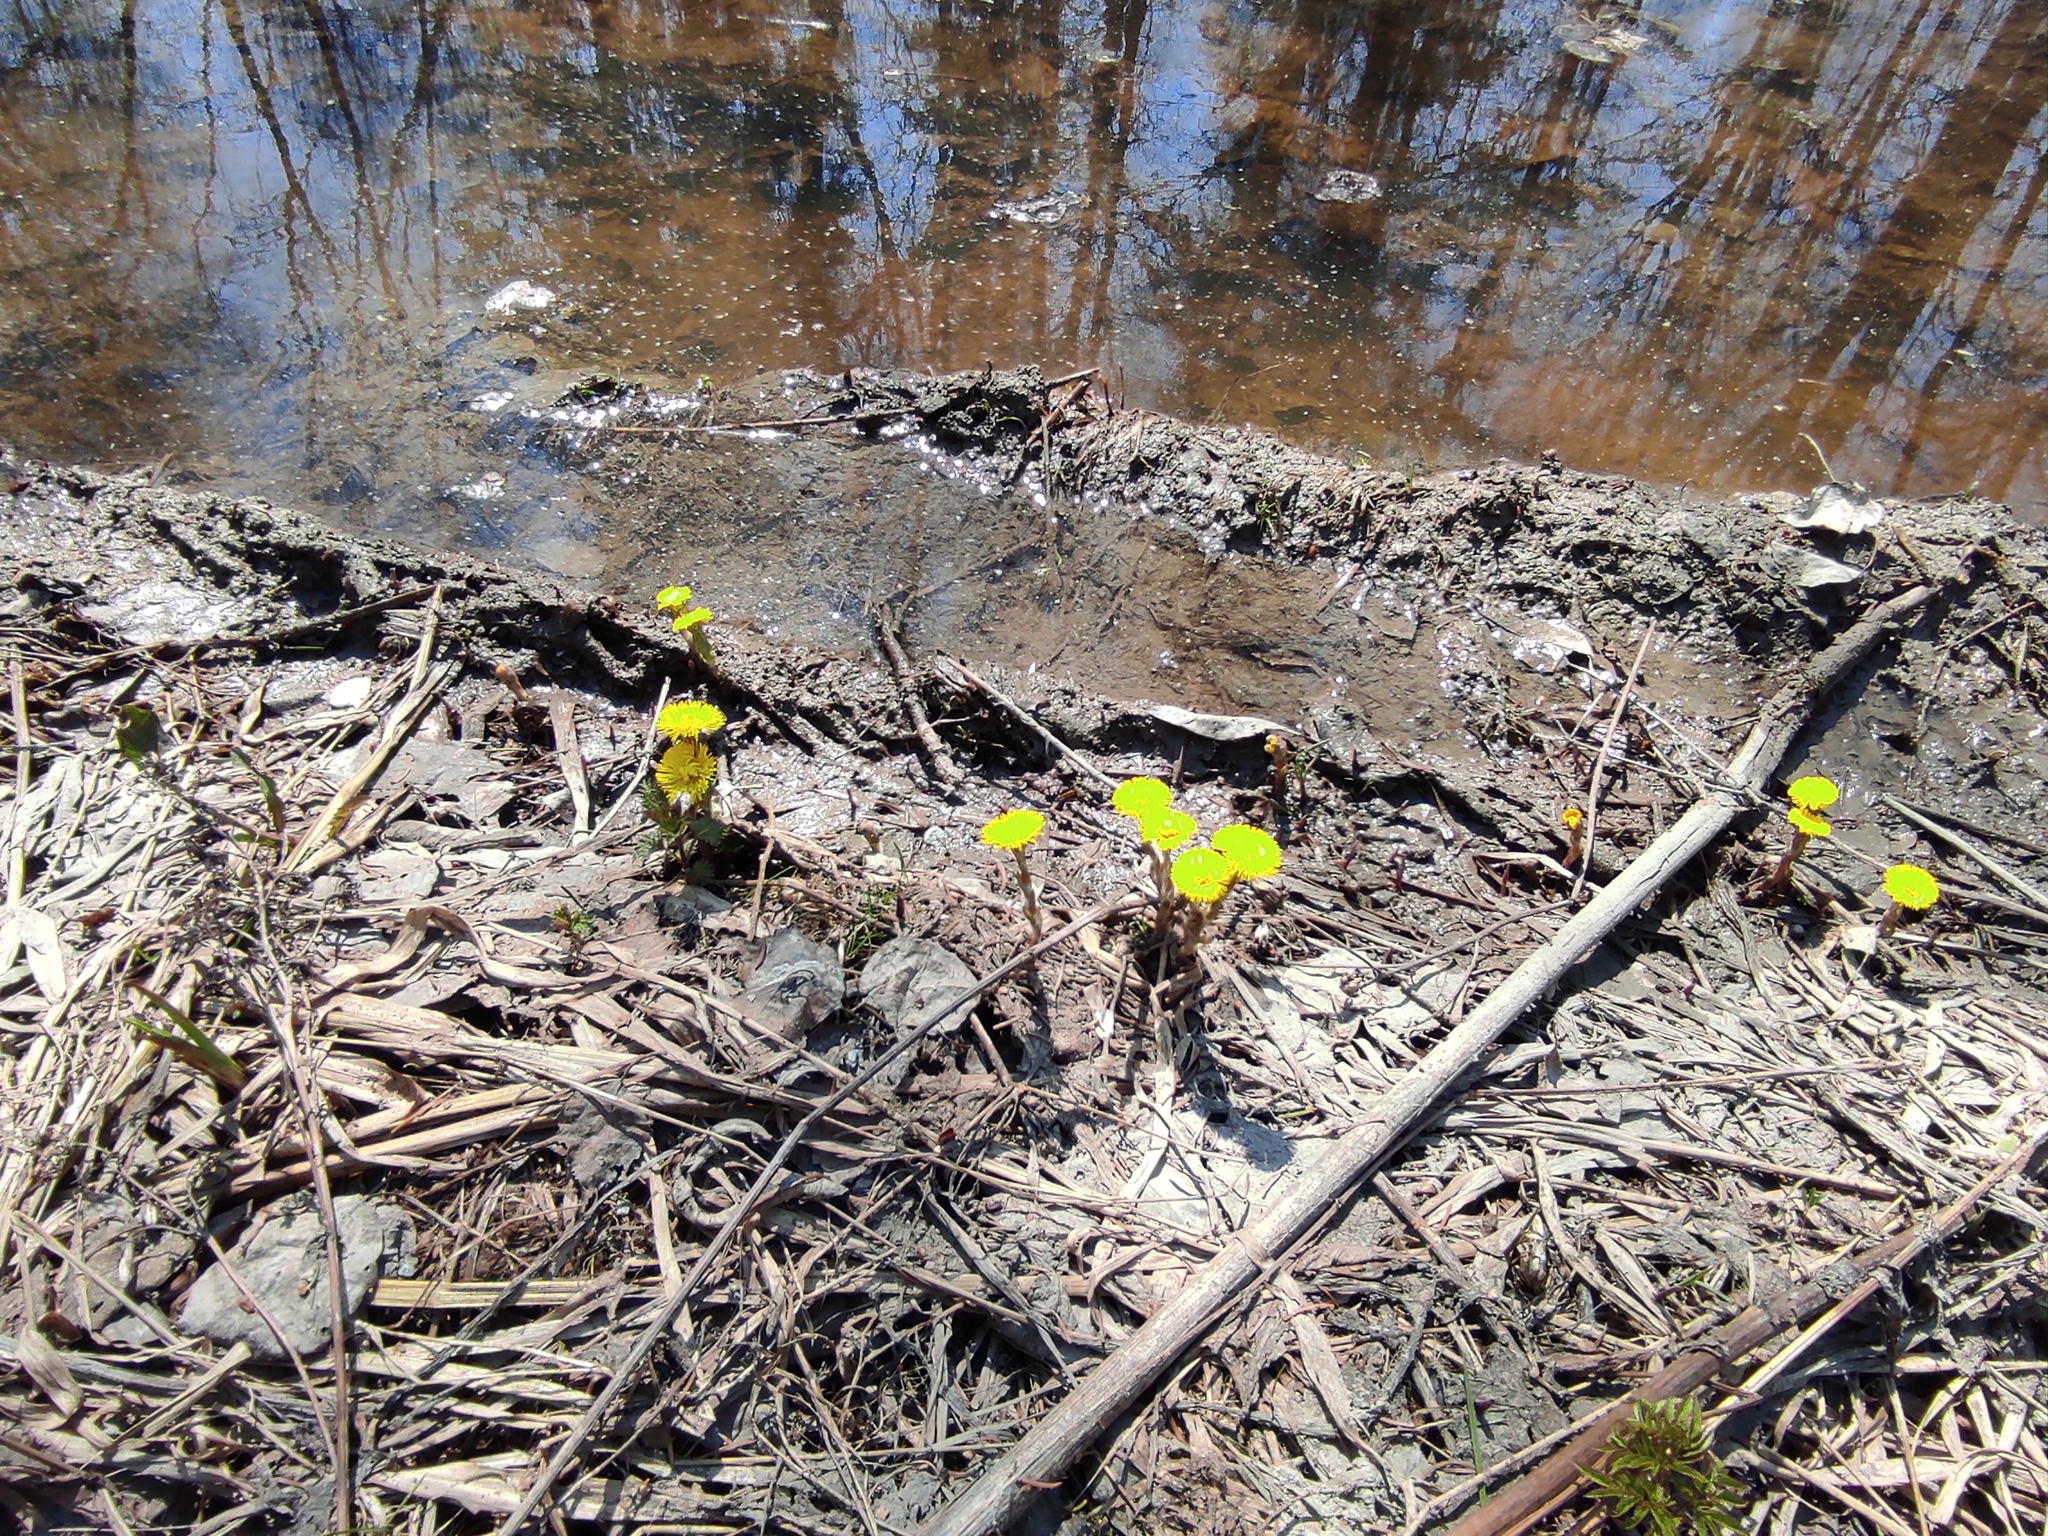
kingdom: Plantae
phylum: Tracheophyta
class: Magnoliopsida
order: Asterales
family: Asteraceae
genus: Tussilago
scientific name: Tussilago farfara
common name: Coltsfoot
